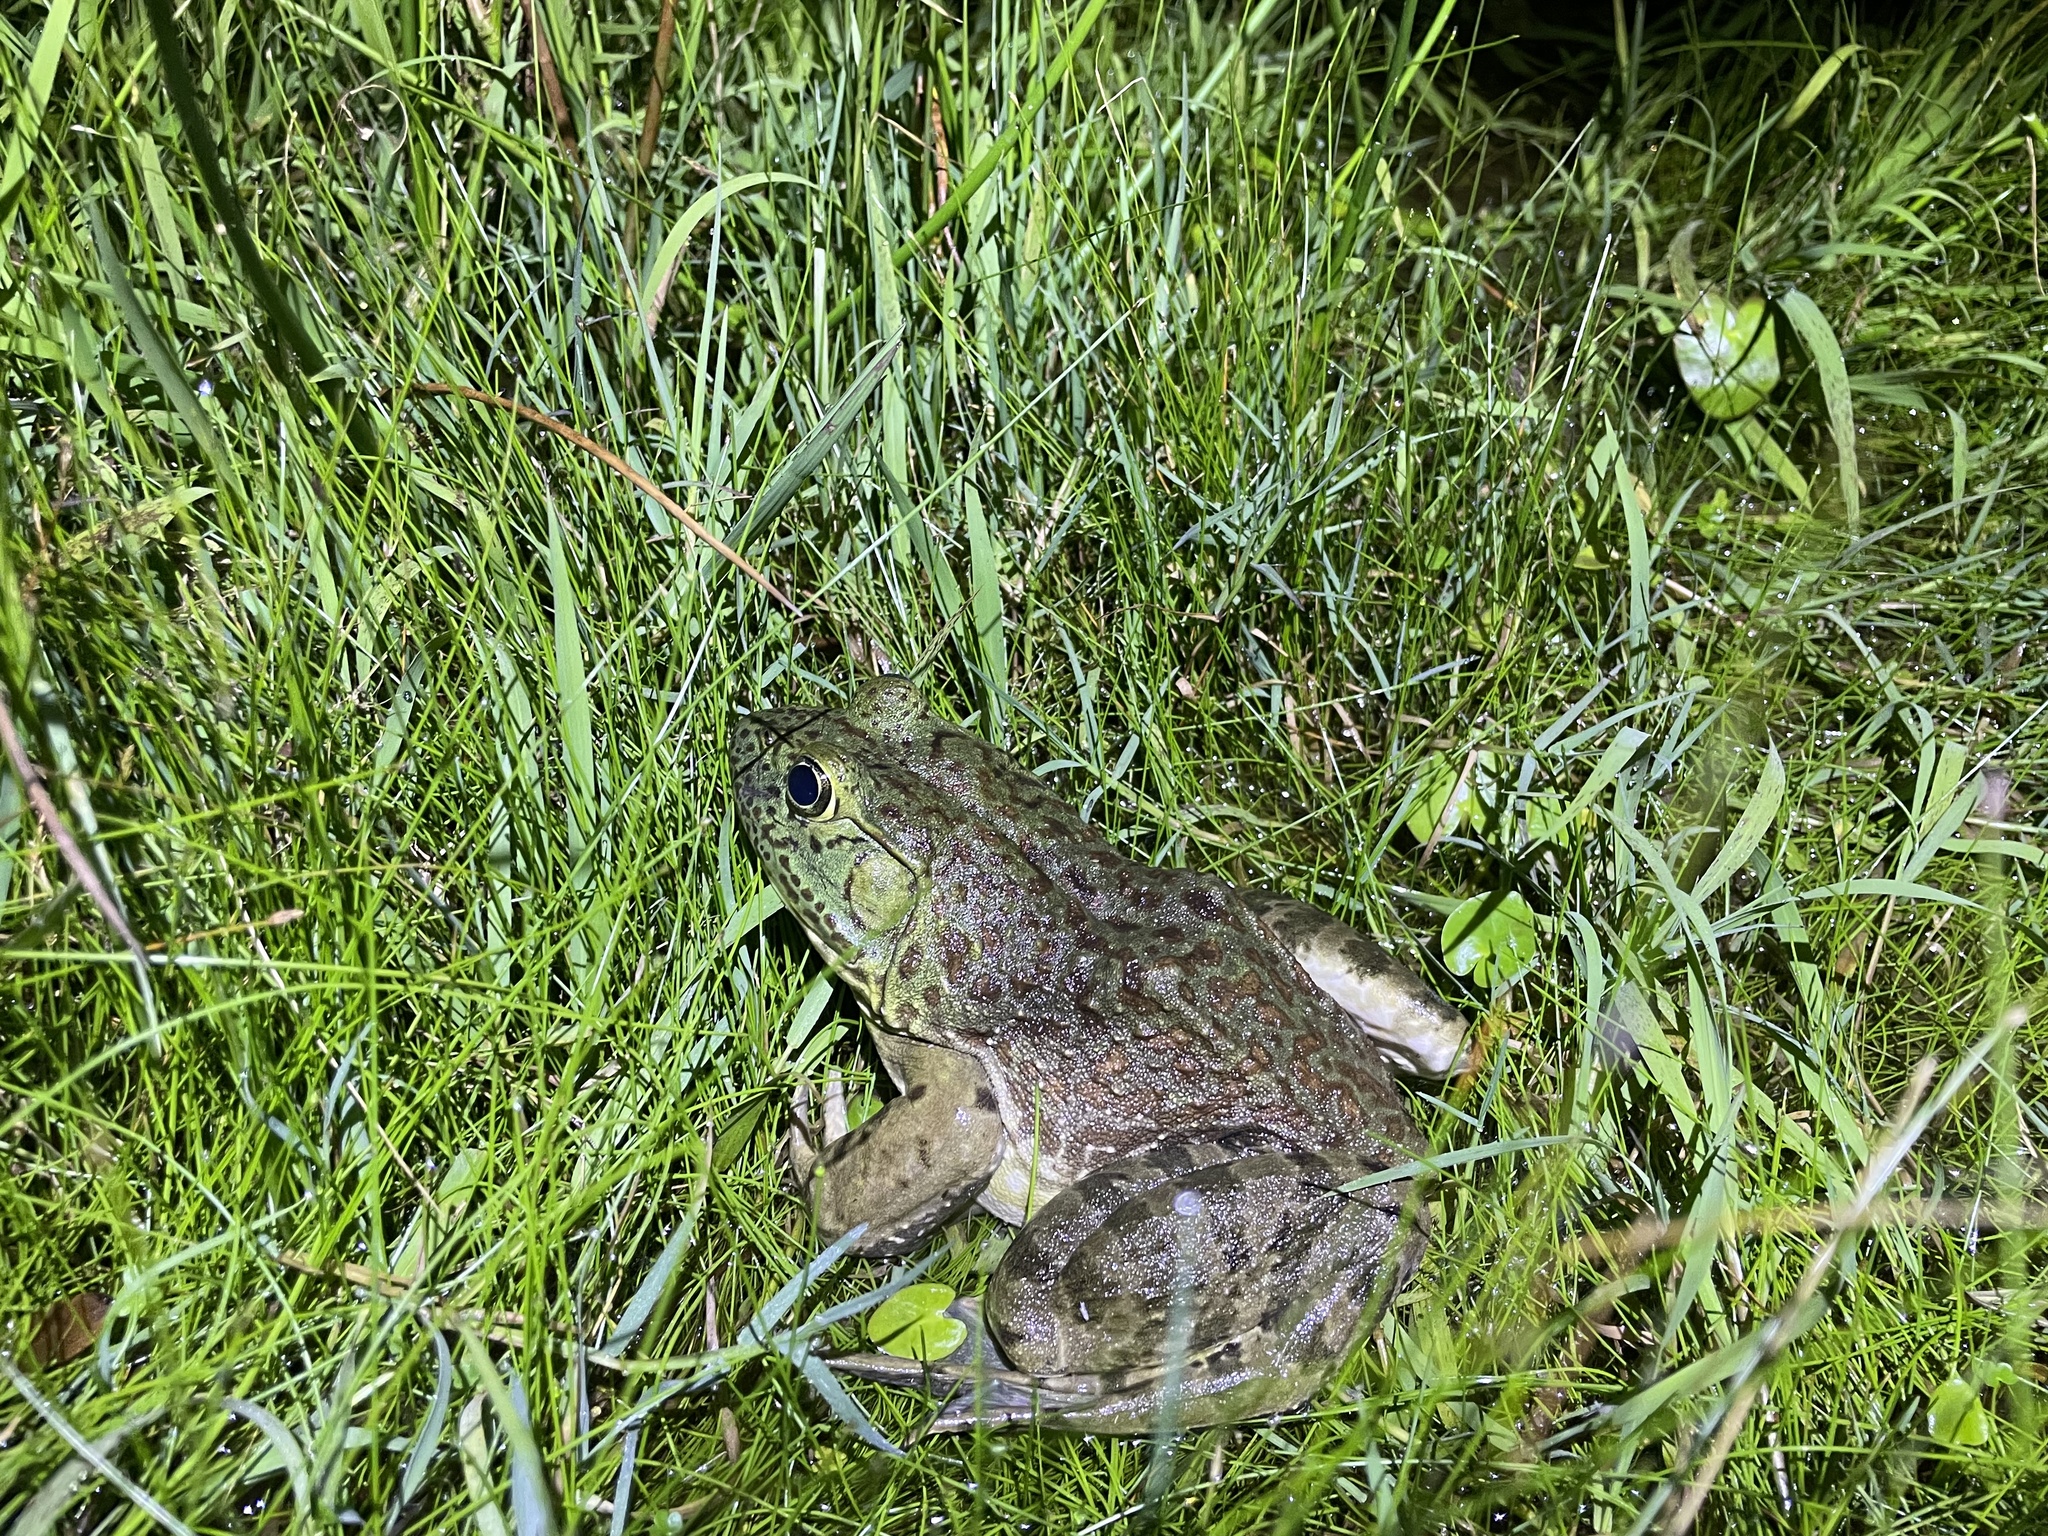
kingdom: Animalia
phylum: Chordata
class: Amphibia
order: Anura
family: Ranidae
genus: Lithobates
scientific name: Lithobates catesbeianus
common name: American bullfrog
